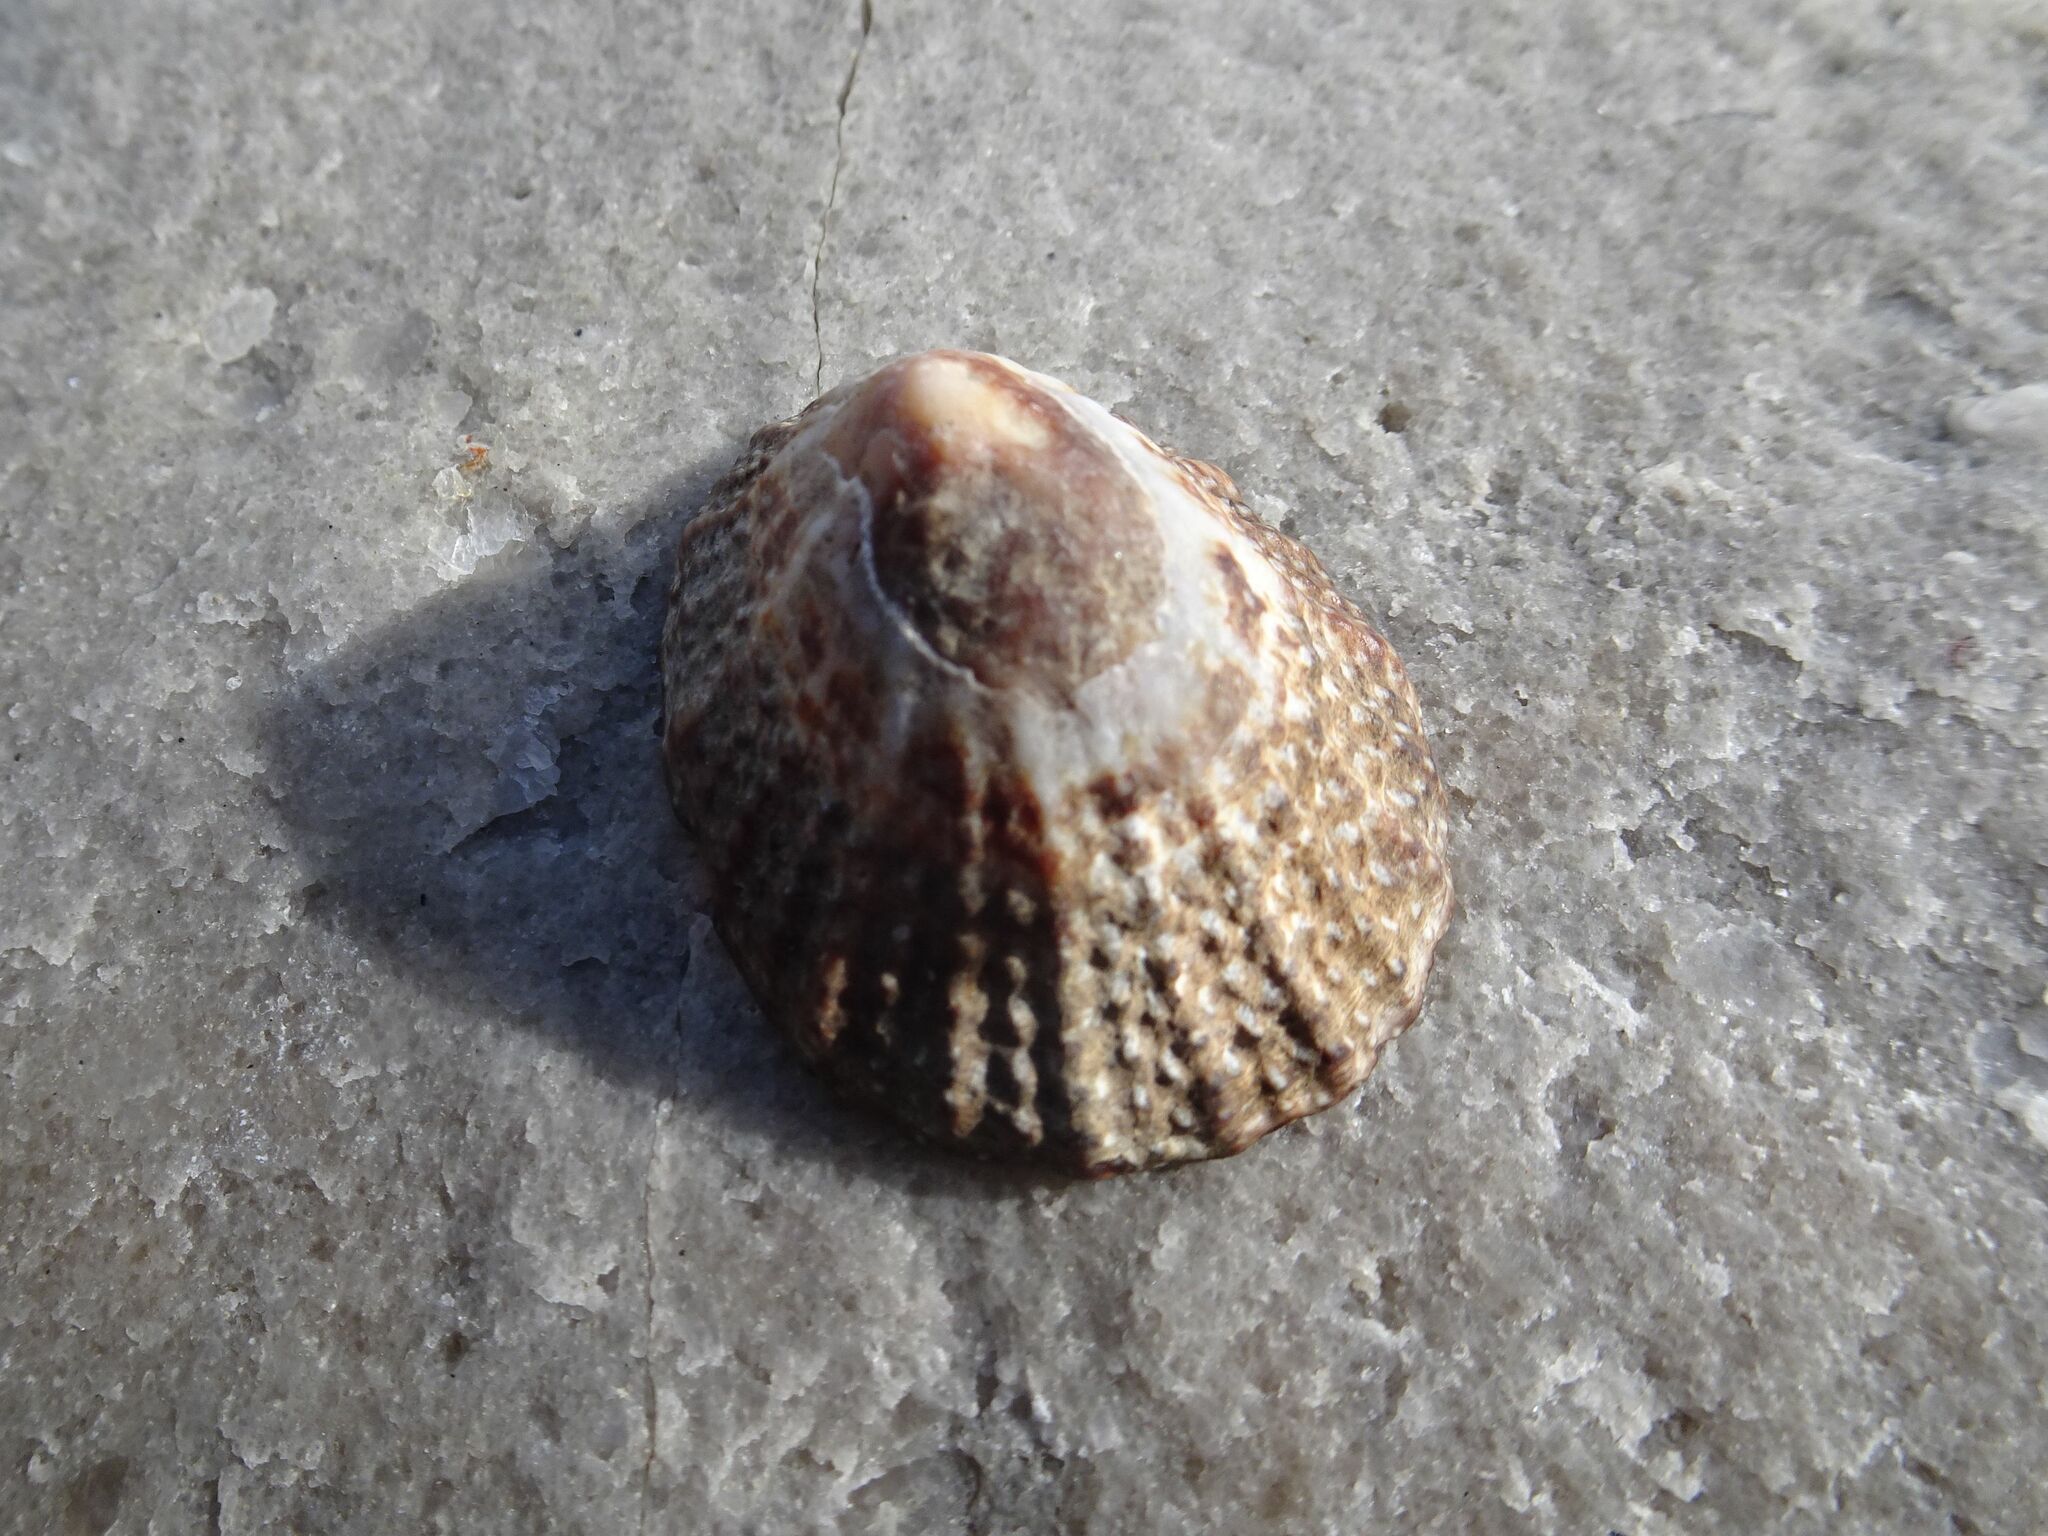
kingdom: Animalia
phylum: Mollusca
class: Gastropoda
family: Patellidae
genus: Scutellastra
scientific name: Scutellastra granularis
